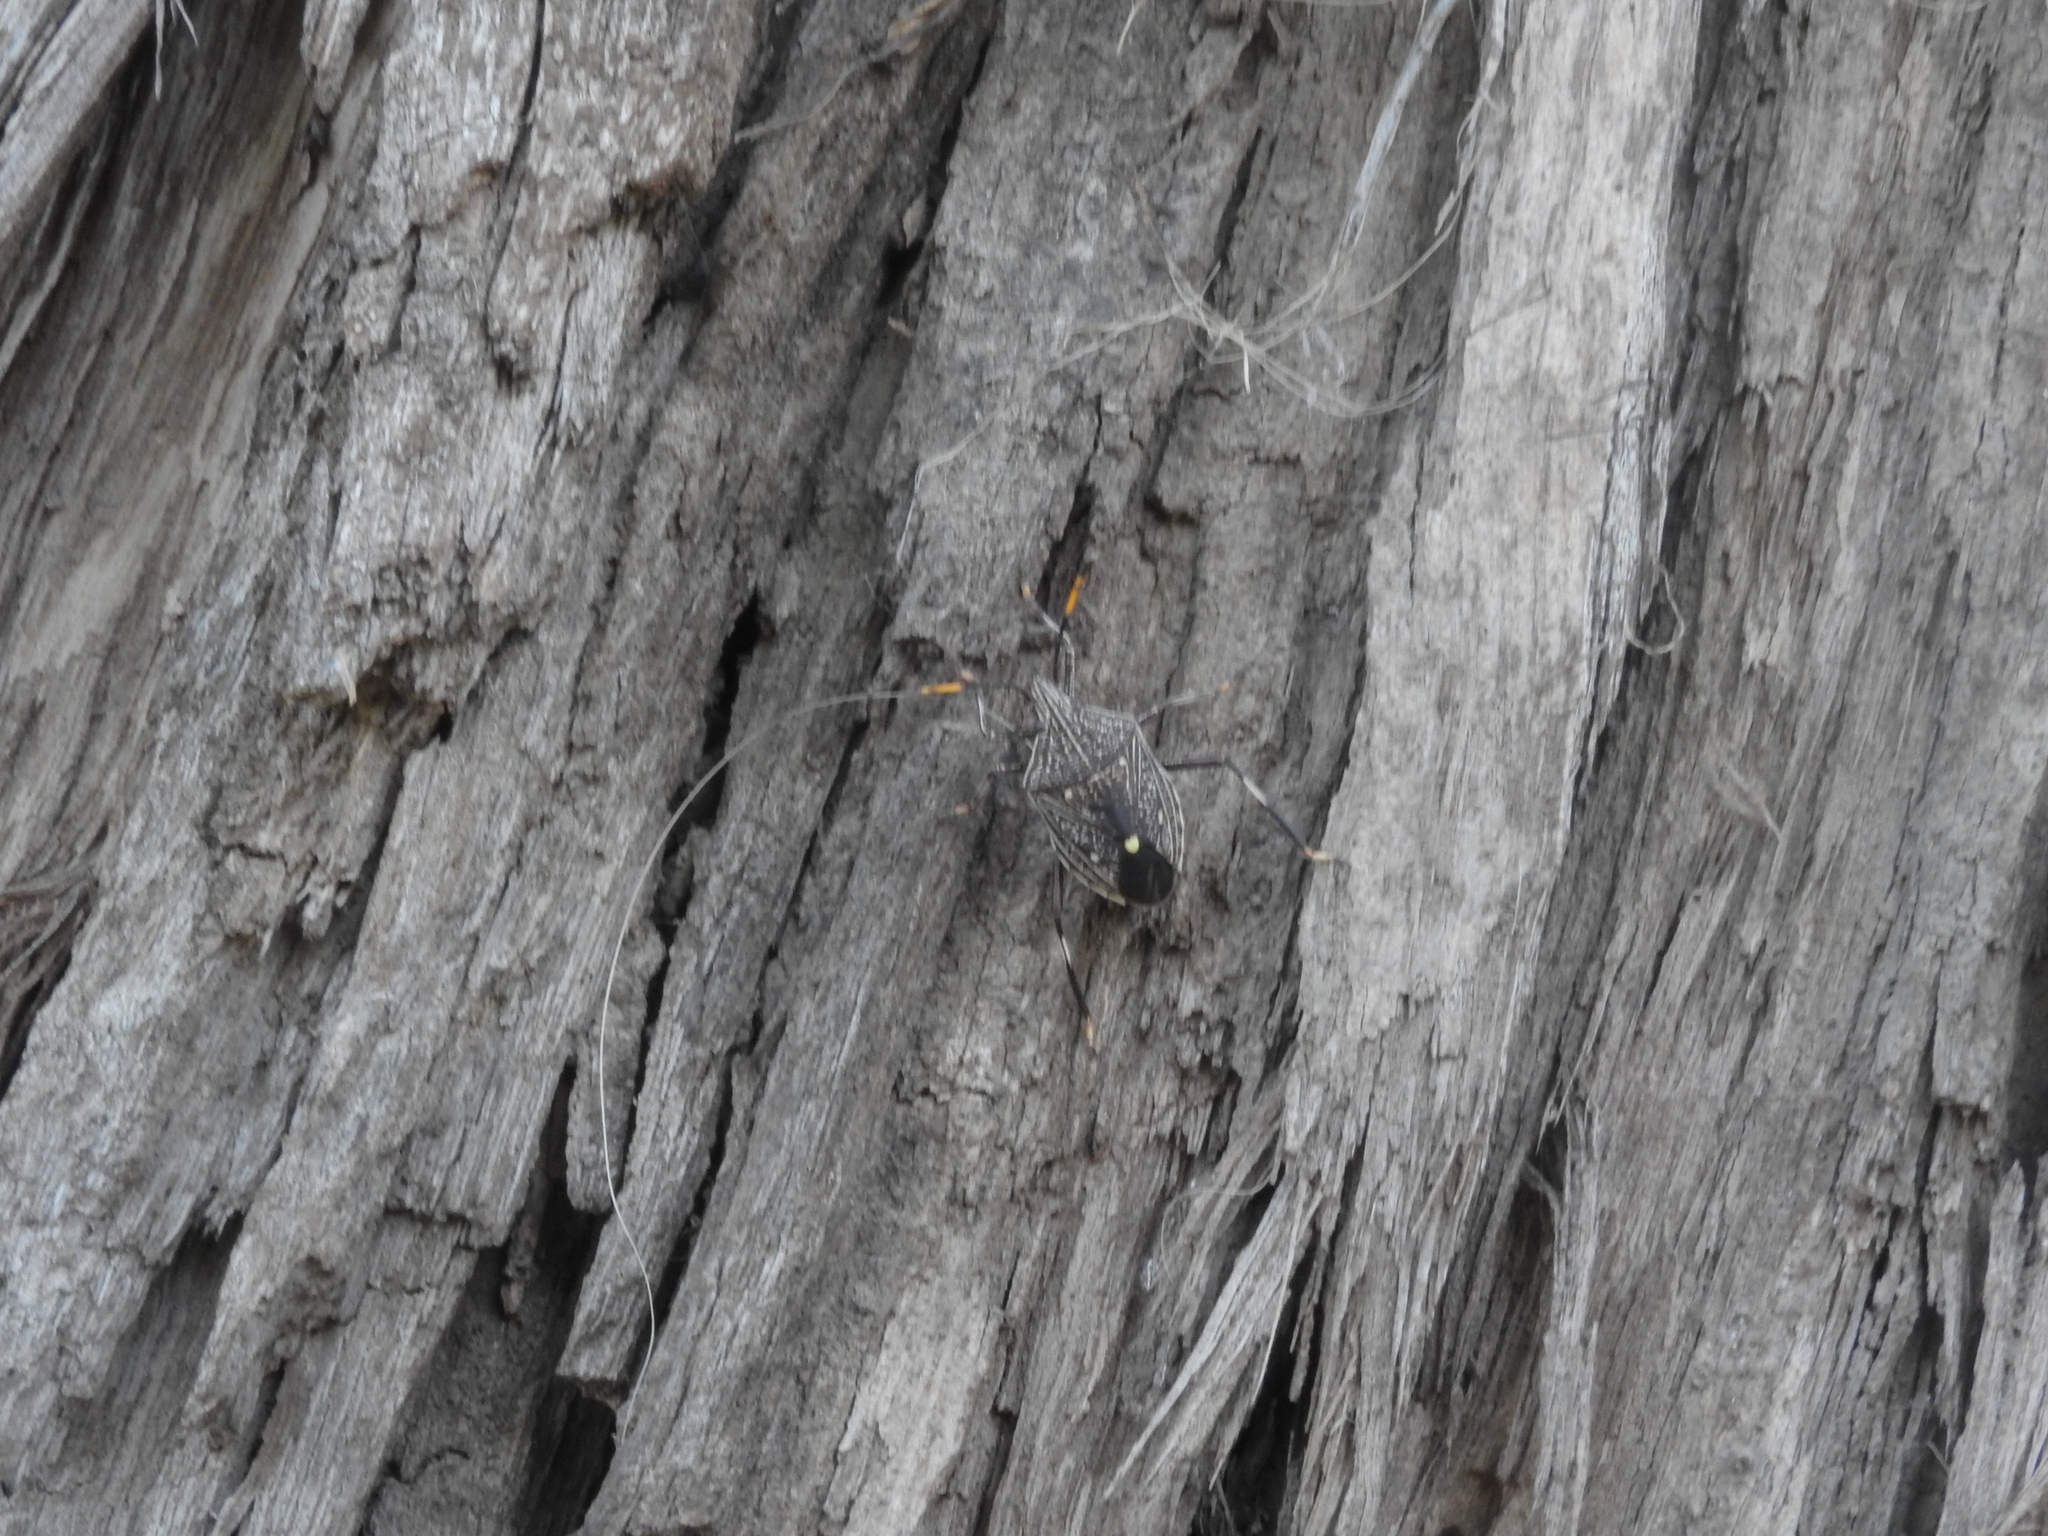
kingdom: Animalia
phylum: Arthropoda
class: Insecta
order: Hemiptera
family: Pentatomidae
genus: Theseus
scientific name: Theseus modestus
